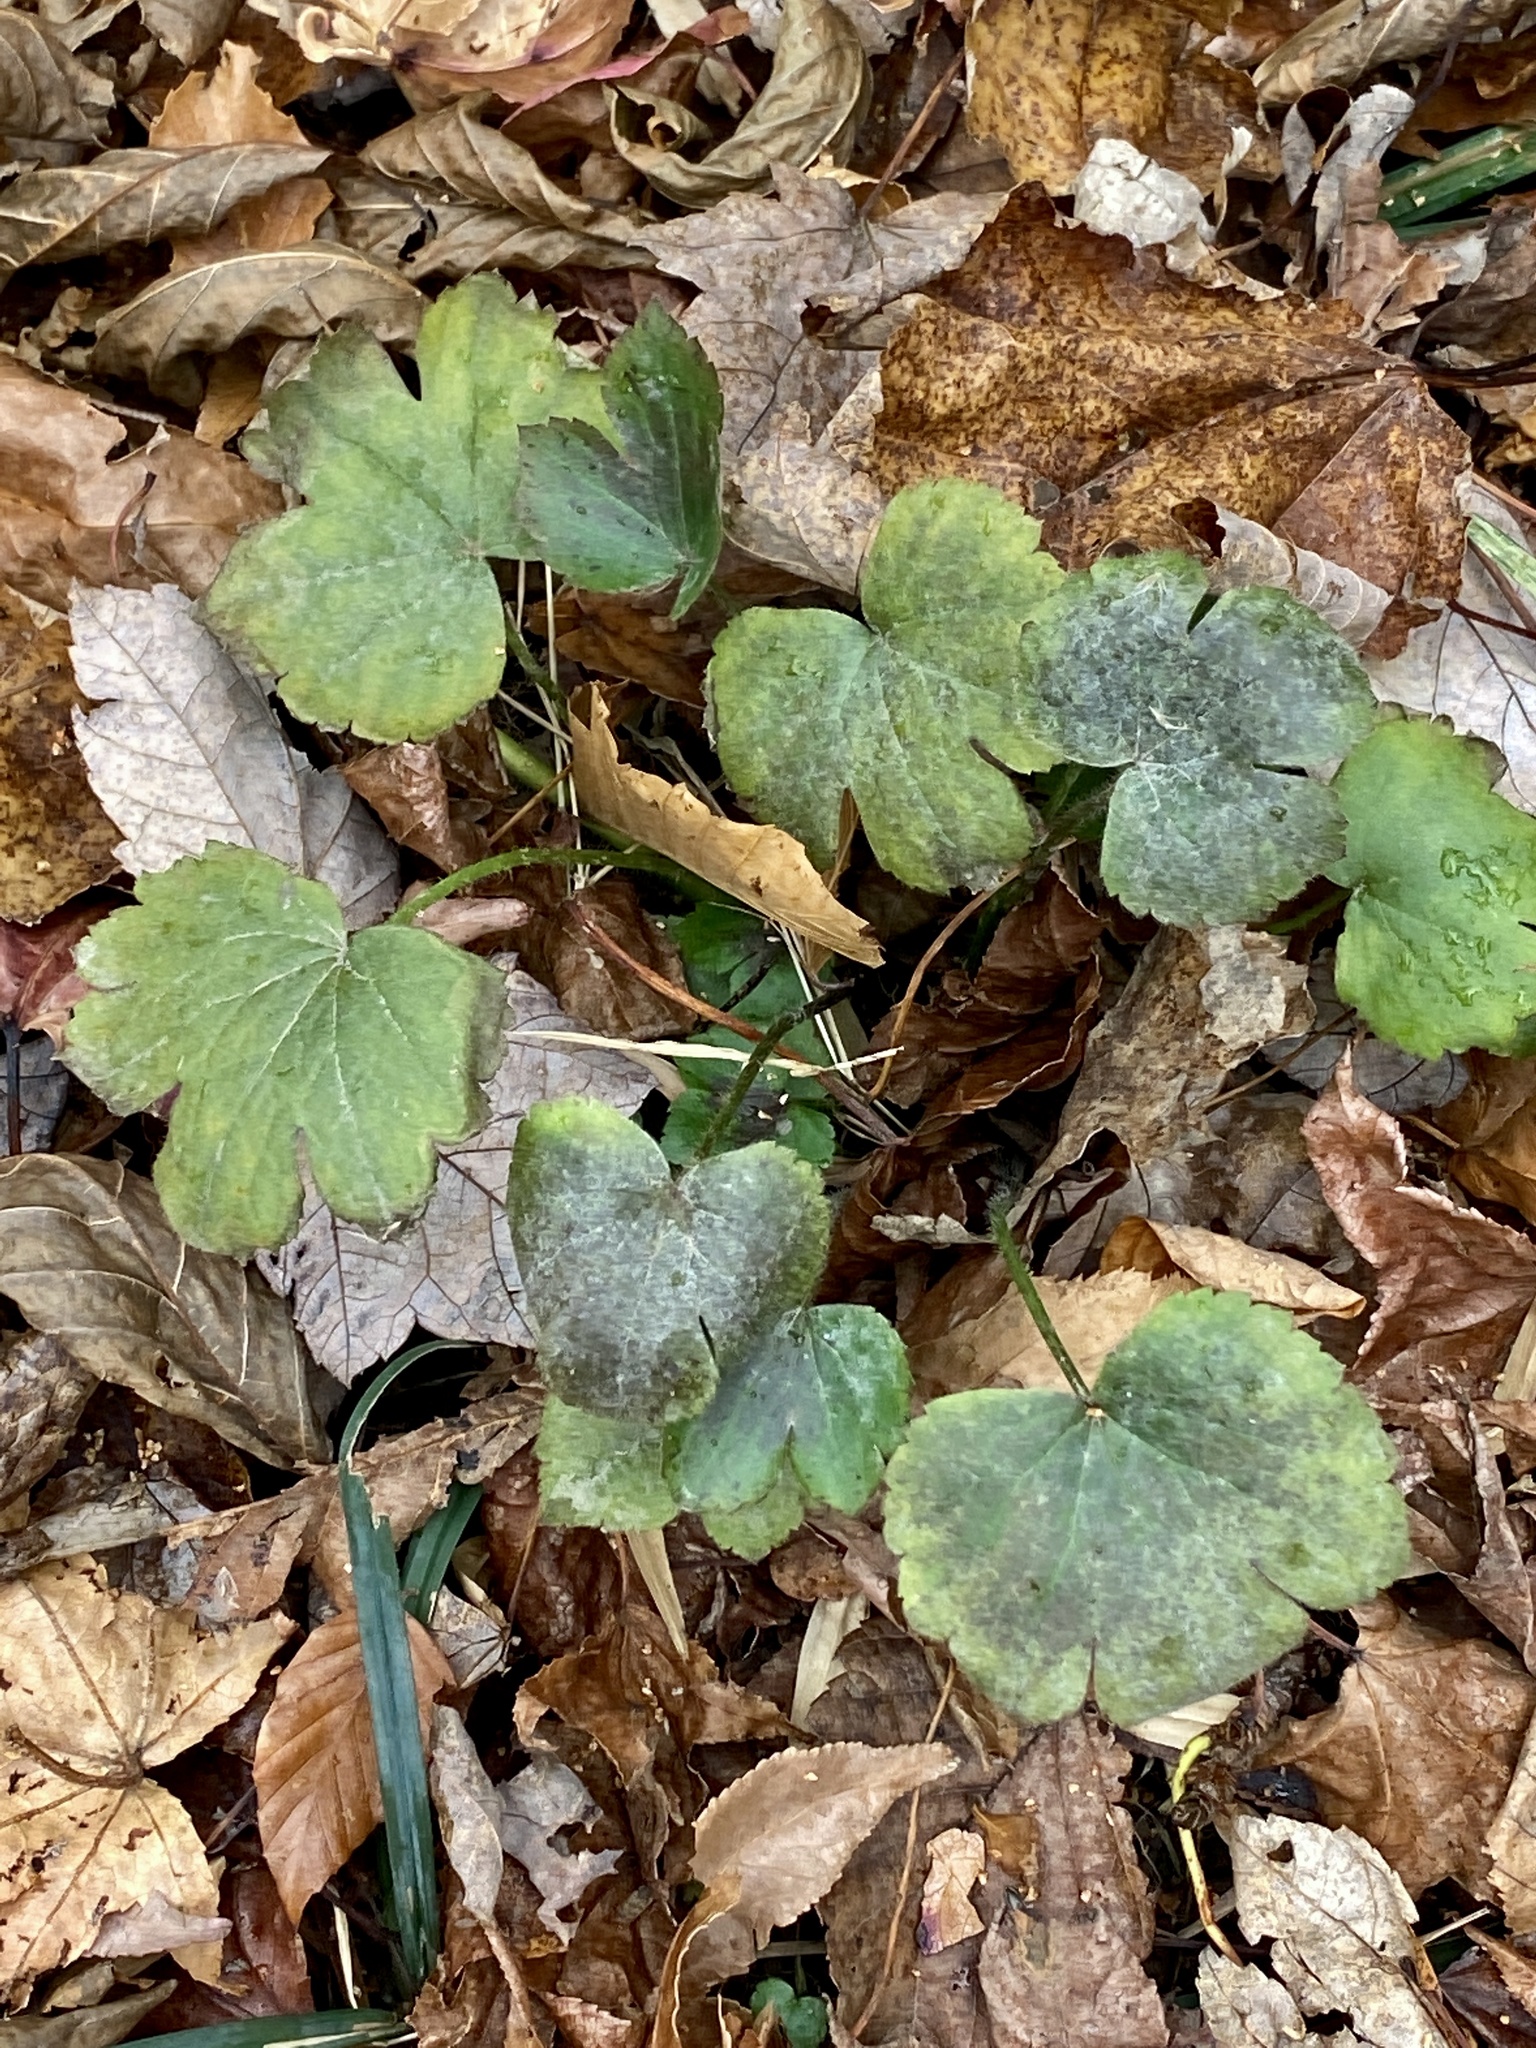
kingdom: Plantae
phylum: Tracheophyta
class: Magnoliopsida
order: Ranunculales
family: Ranunculaceae
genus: Ranunculus
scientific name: Ranunculus recurvatus
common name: Blisterwort
